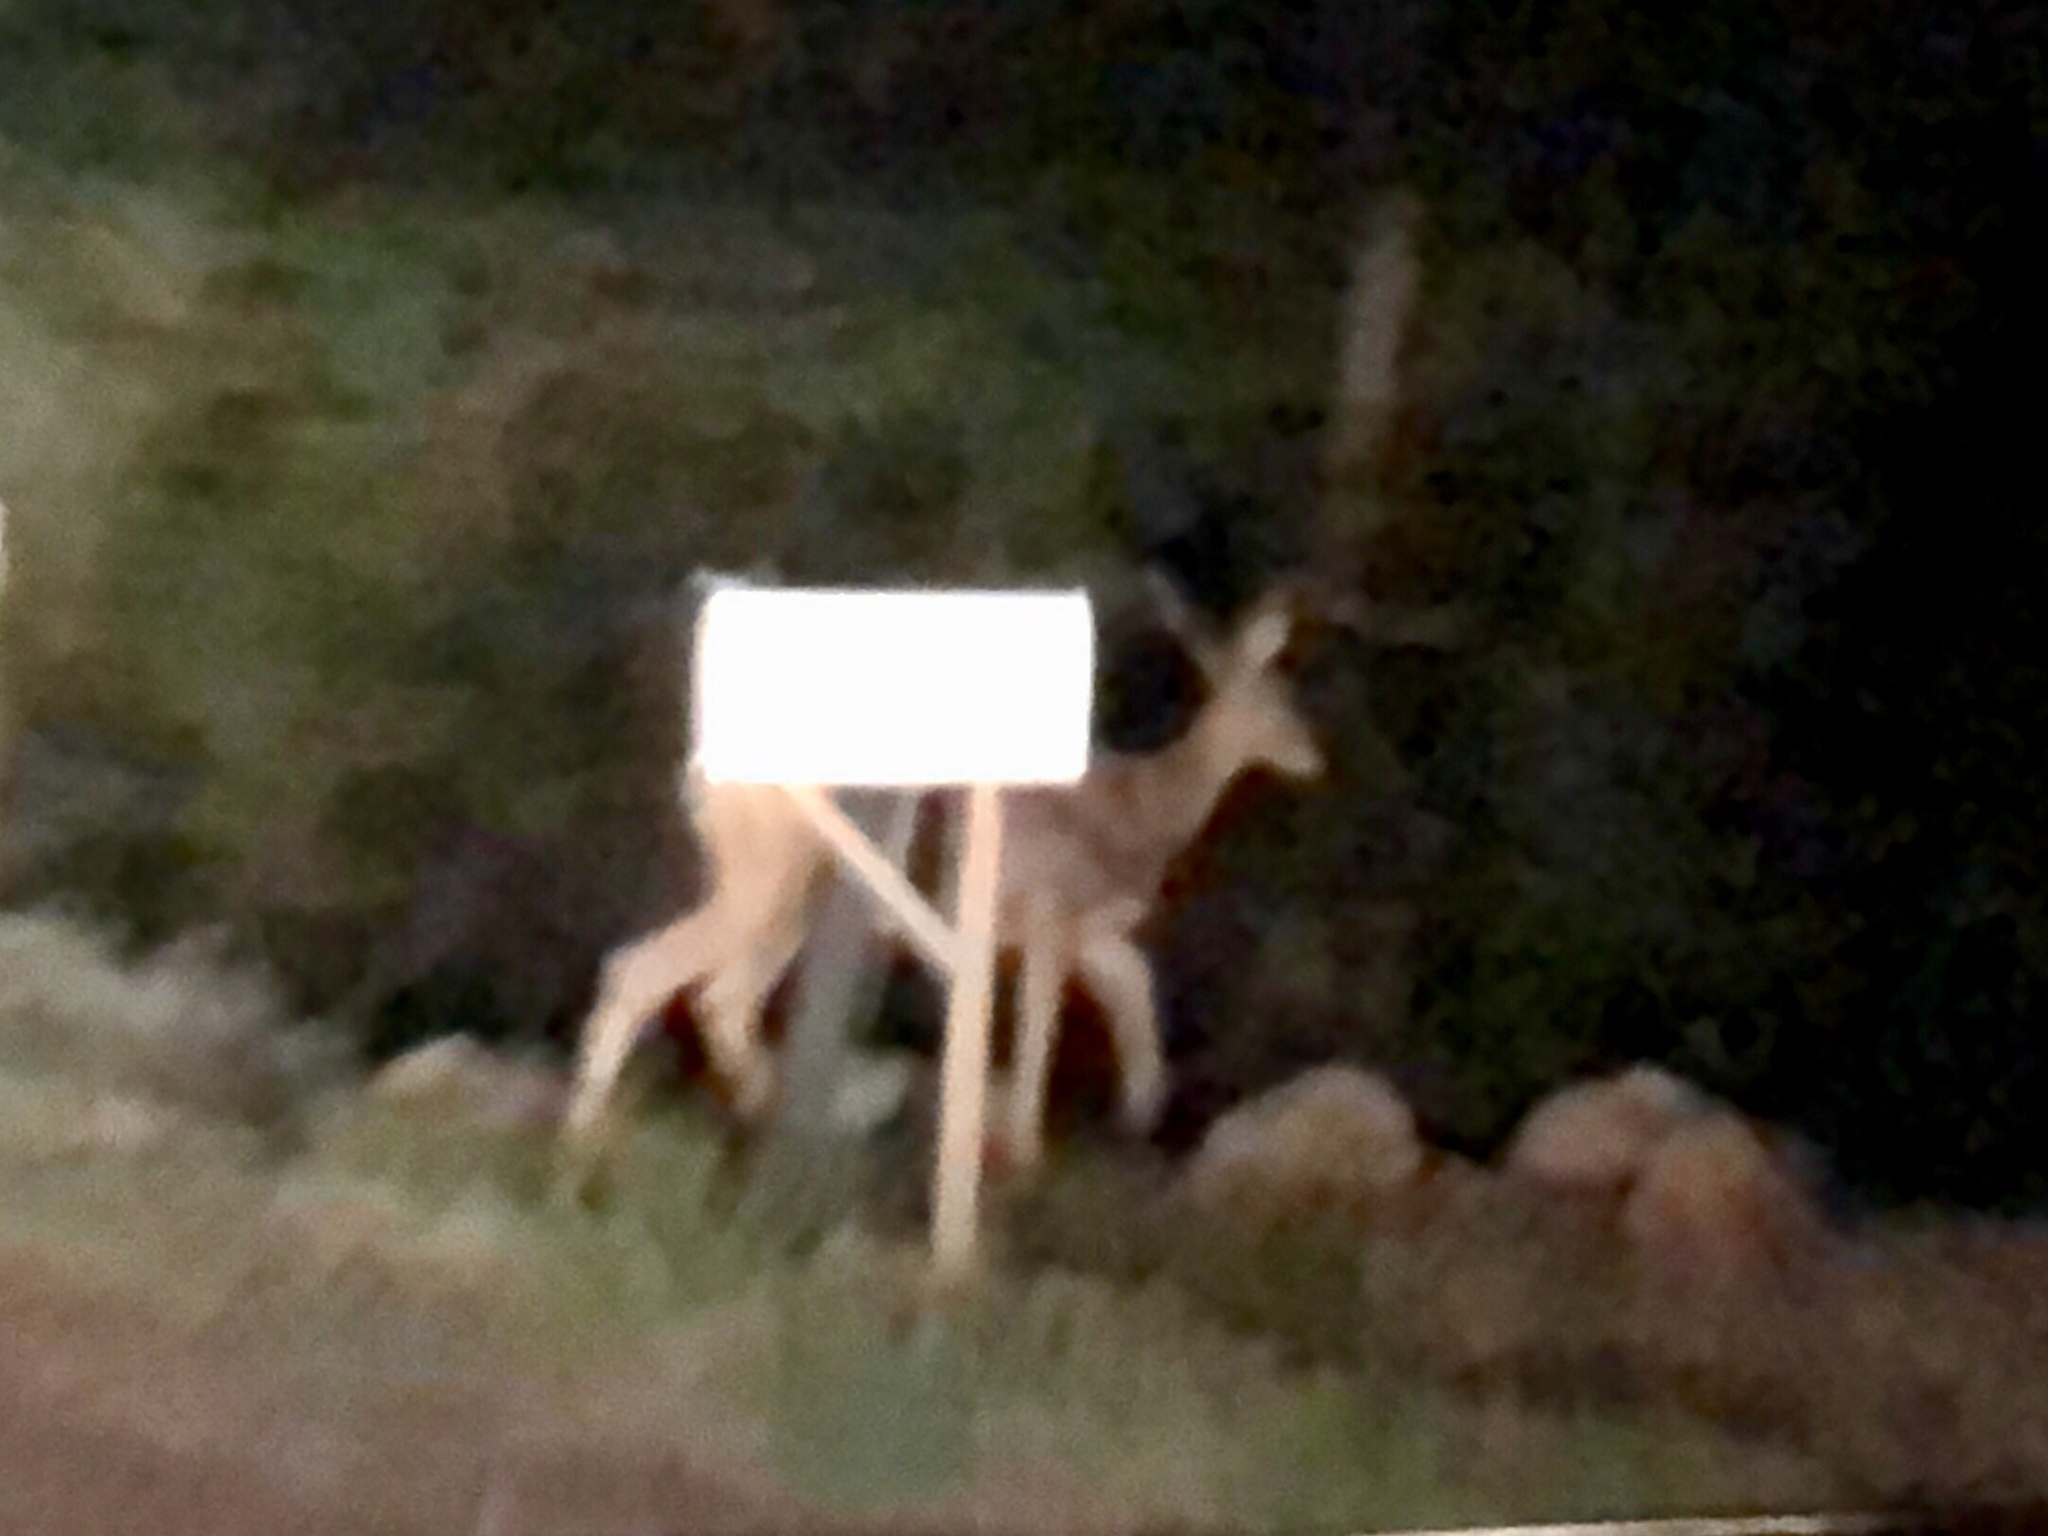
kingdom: Animalia
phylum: Chordata
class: Mammalia
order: Artiodactyla
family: Cervidae
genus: Odocoileus
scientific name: Odocoileus hemionus
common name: Mule deer
